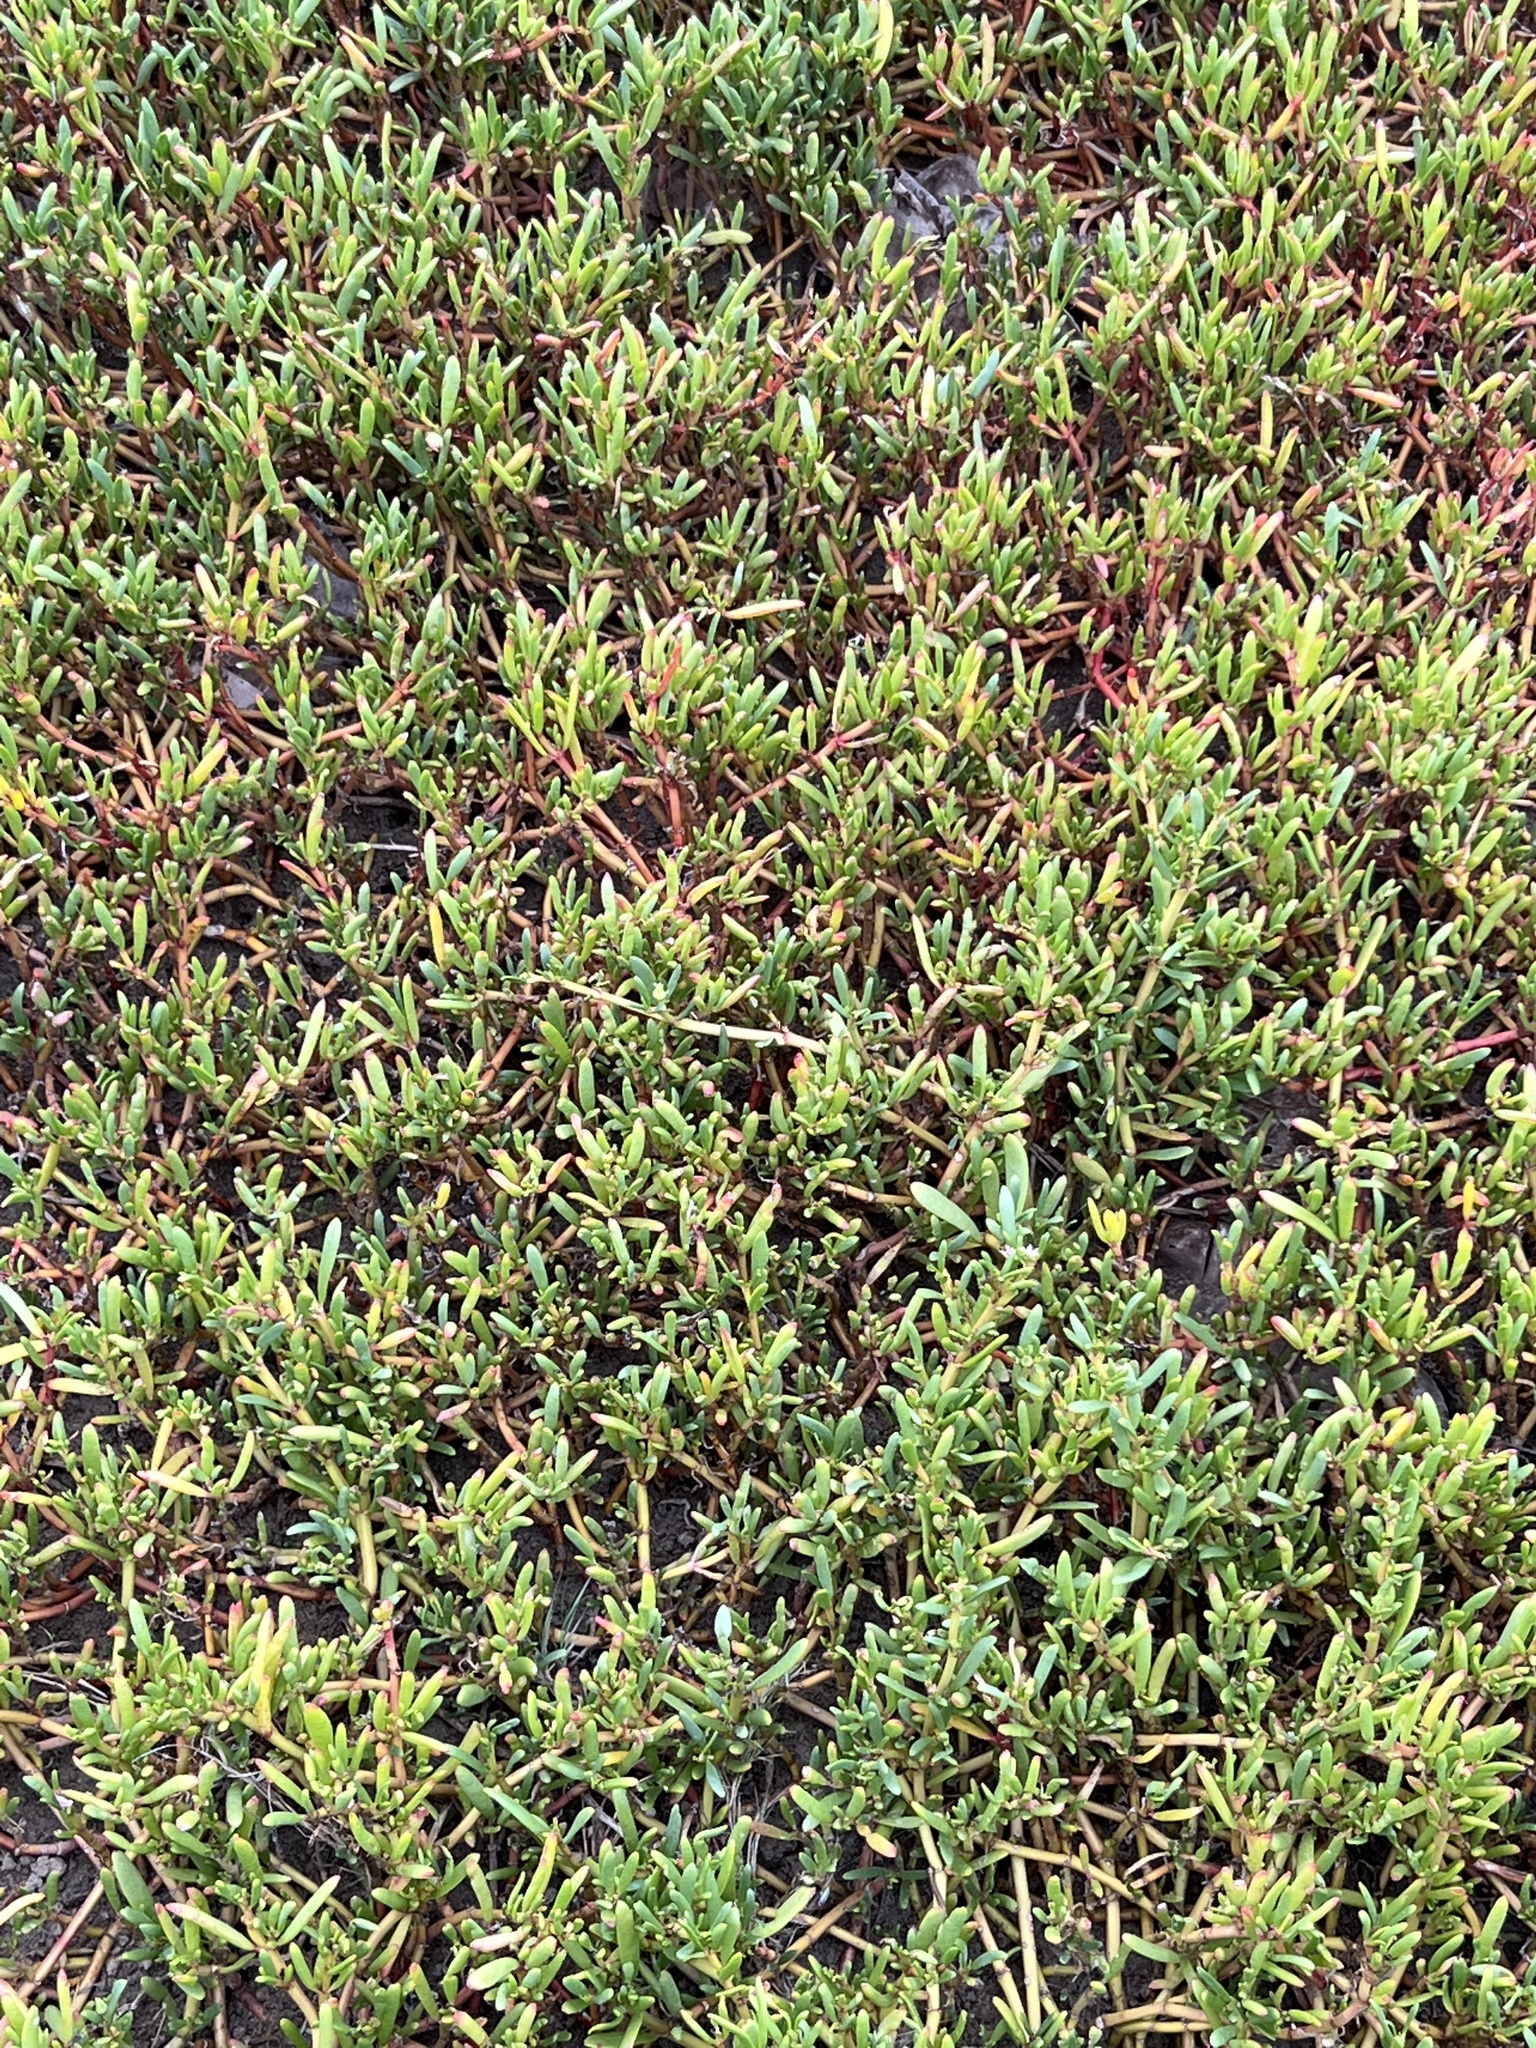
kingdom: Plantae
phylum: Tracheophyta
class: Magnoliopsida
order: Caryophyllales
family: Aizoaceae
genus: Sesuvium
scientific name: Sesuvium portulacastrum
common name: Sea-purslane
